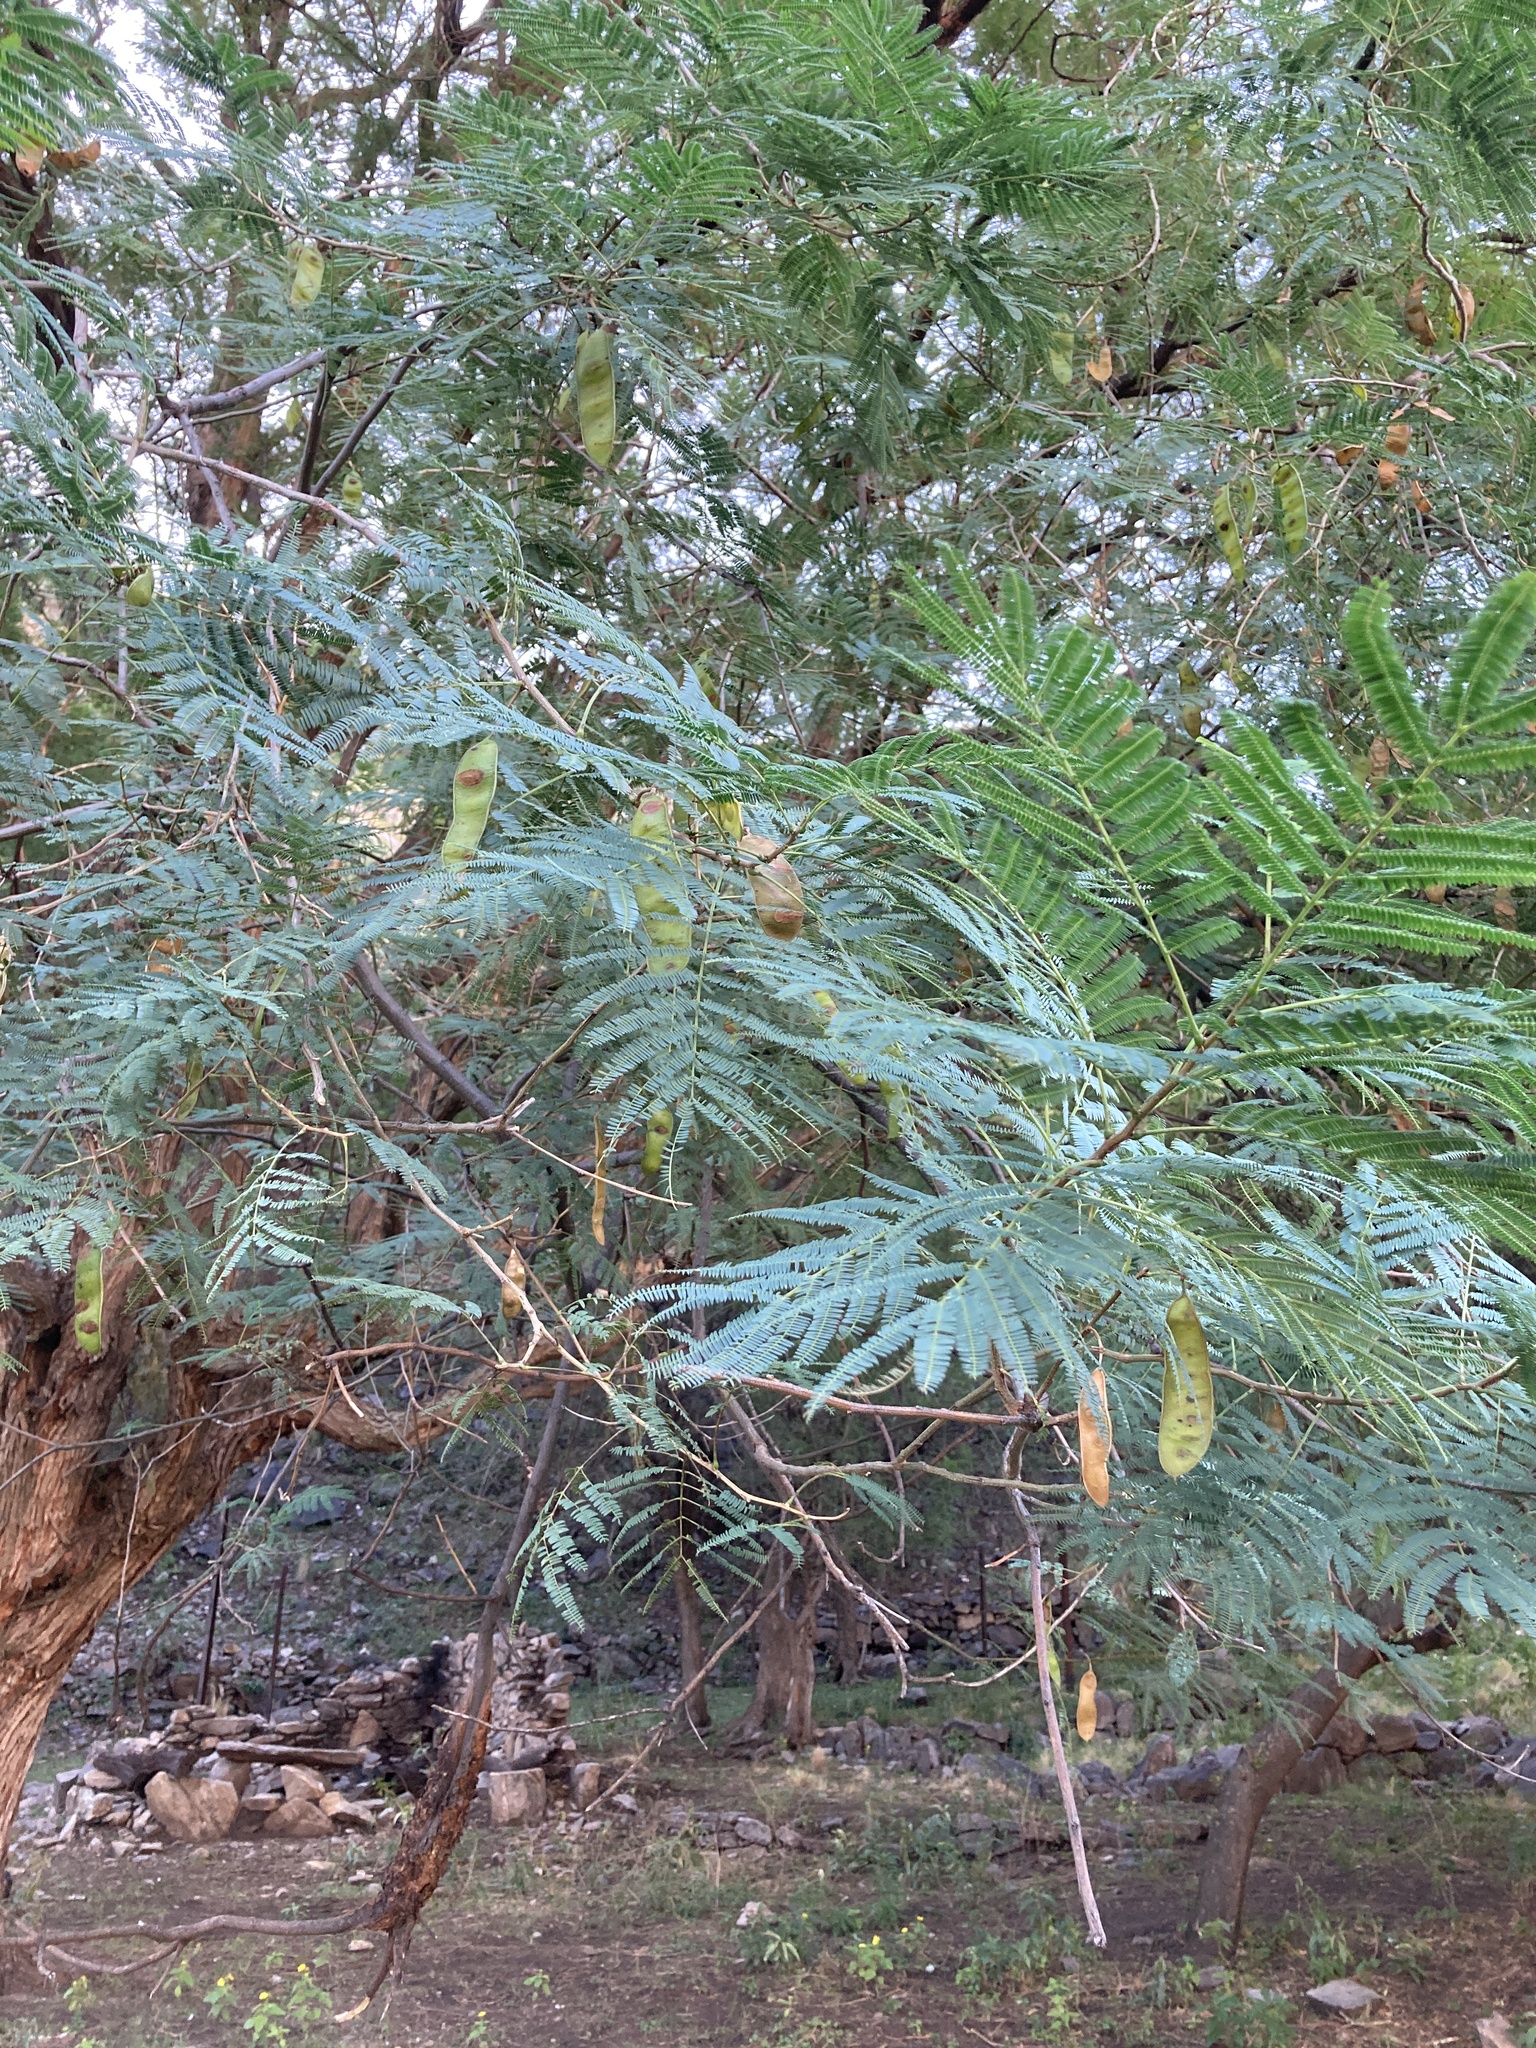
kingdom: Plantae
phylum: Tracheophyta
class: Magnoliopsida
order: Fabales
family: Fabaceae
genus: Parasenegalia
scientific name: Parasenegalia visco
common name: Visco
